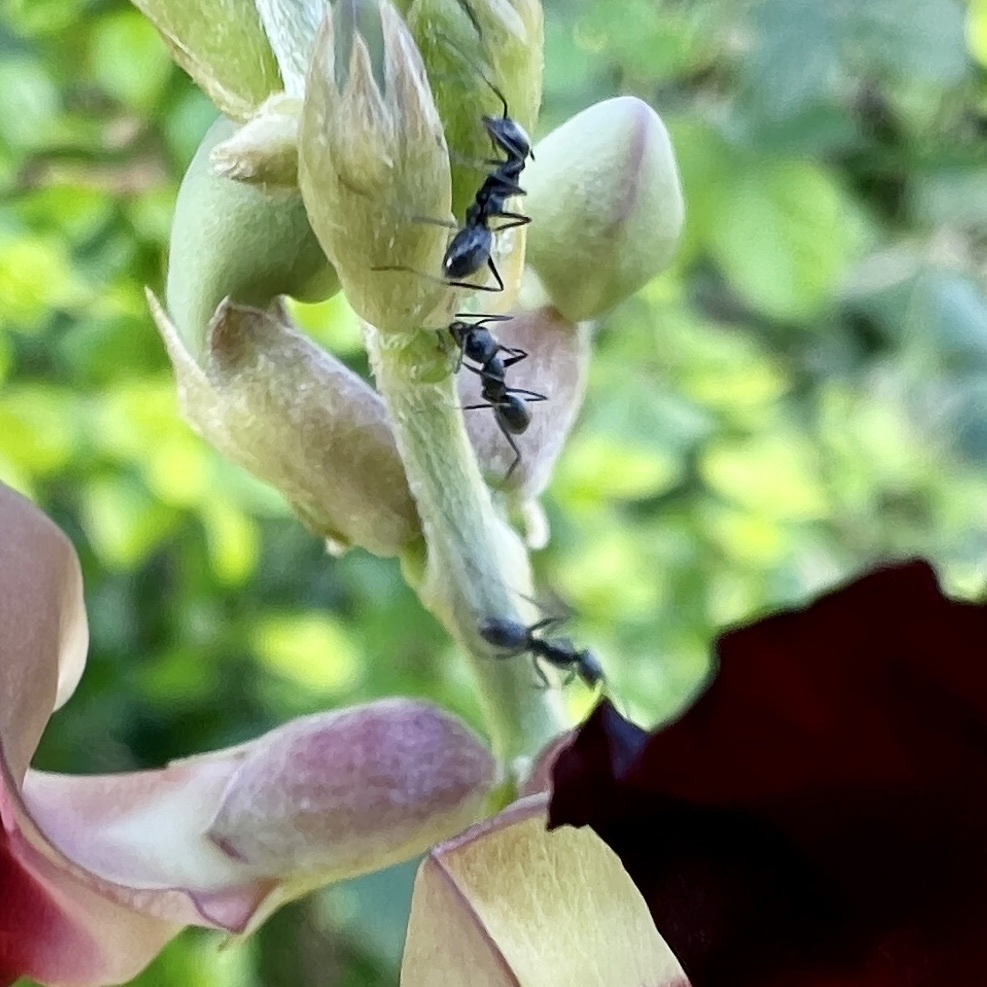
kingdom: Animalia
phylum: Arthropoda
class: Insecta
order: Hymenoptera
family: Formicidae
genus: Dorymyrmex
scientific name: Dorymyrmex
